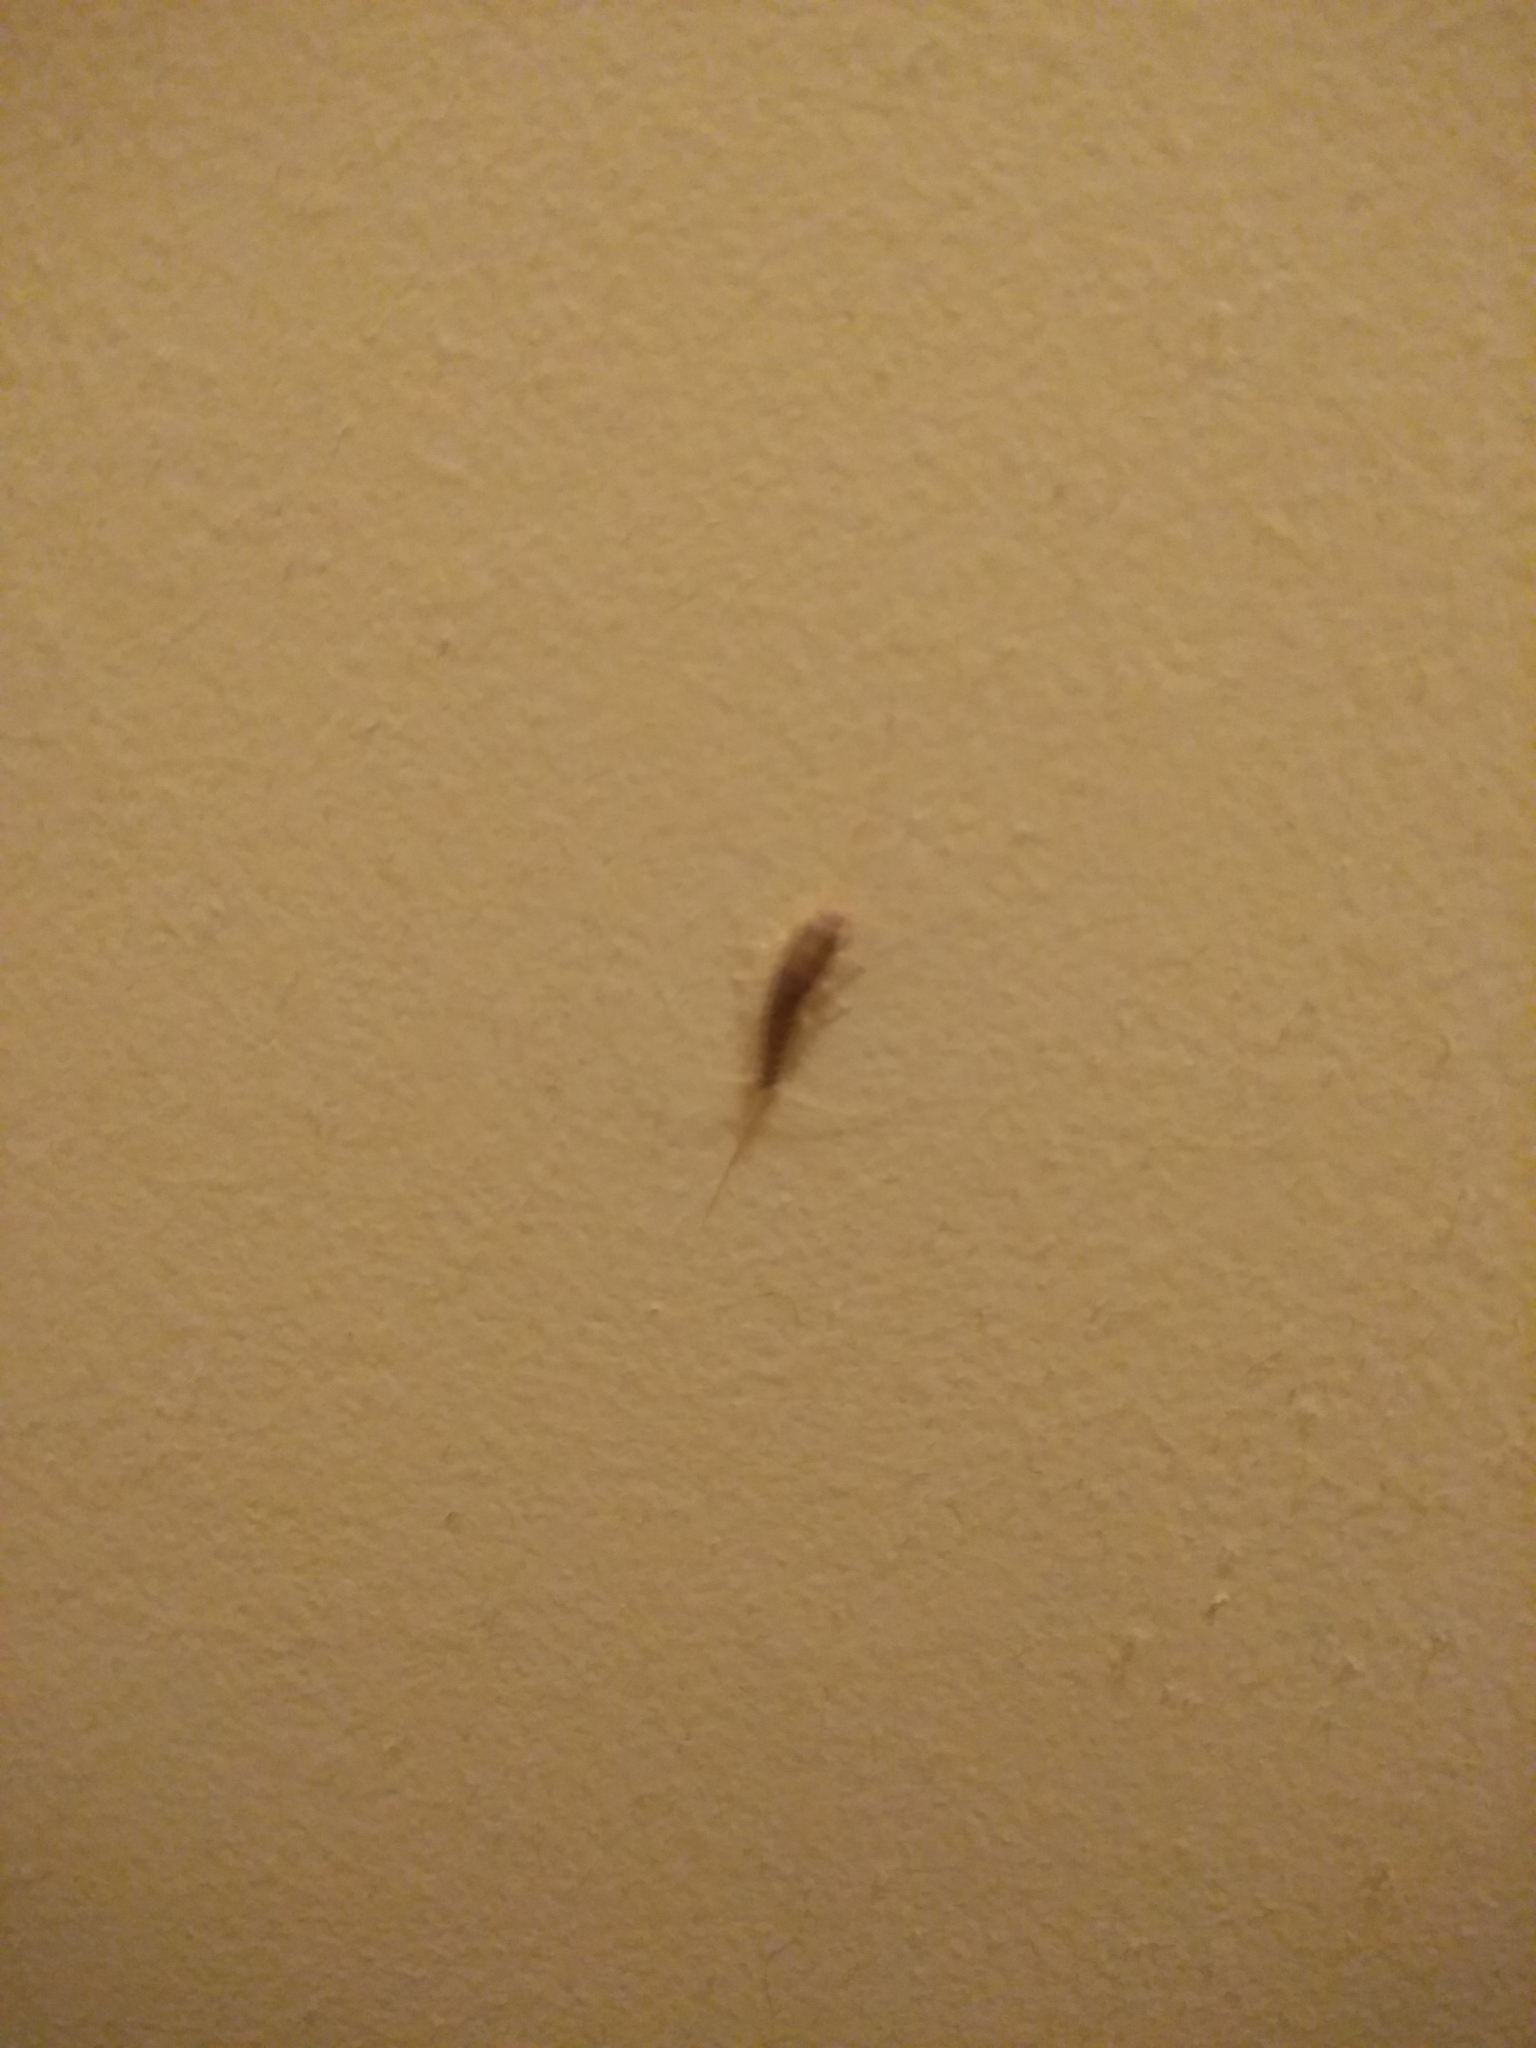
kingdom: Animalia
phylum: Arthropoda
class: Insecta
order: Zygentoma
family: Lepismatidae
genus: Ctenolepisma
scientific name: Ctenolepisma longicaudatum
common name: Silverfish
